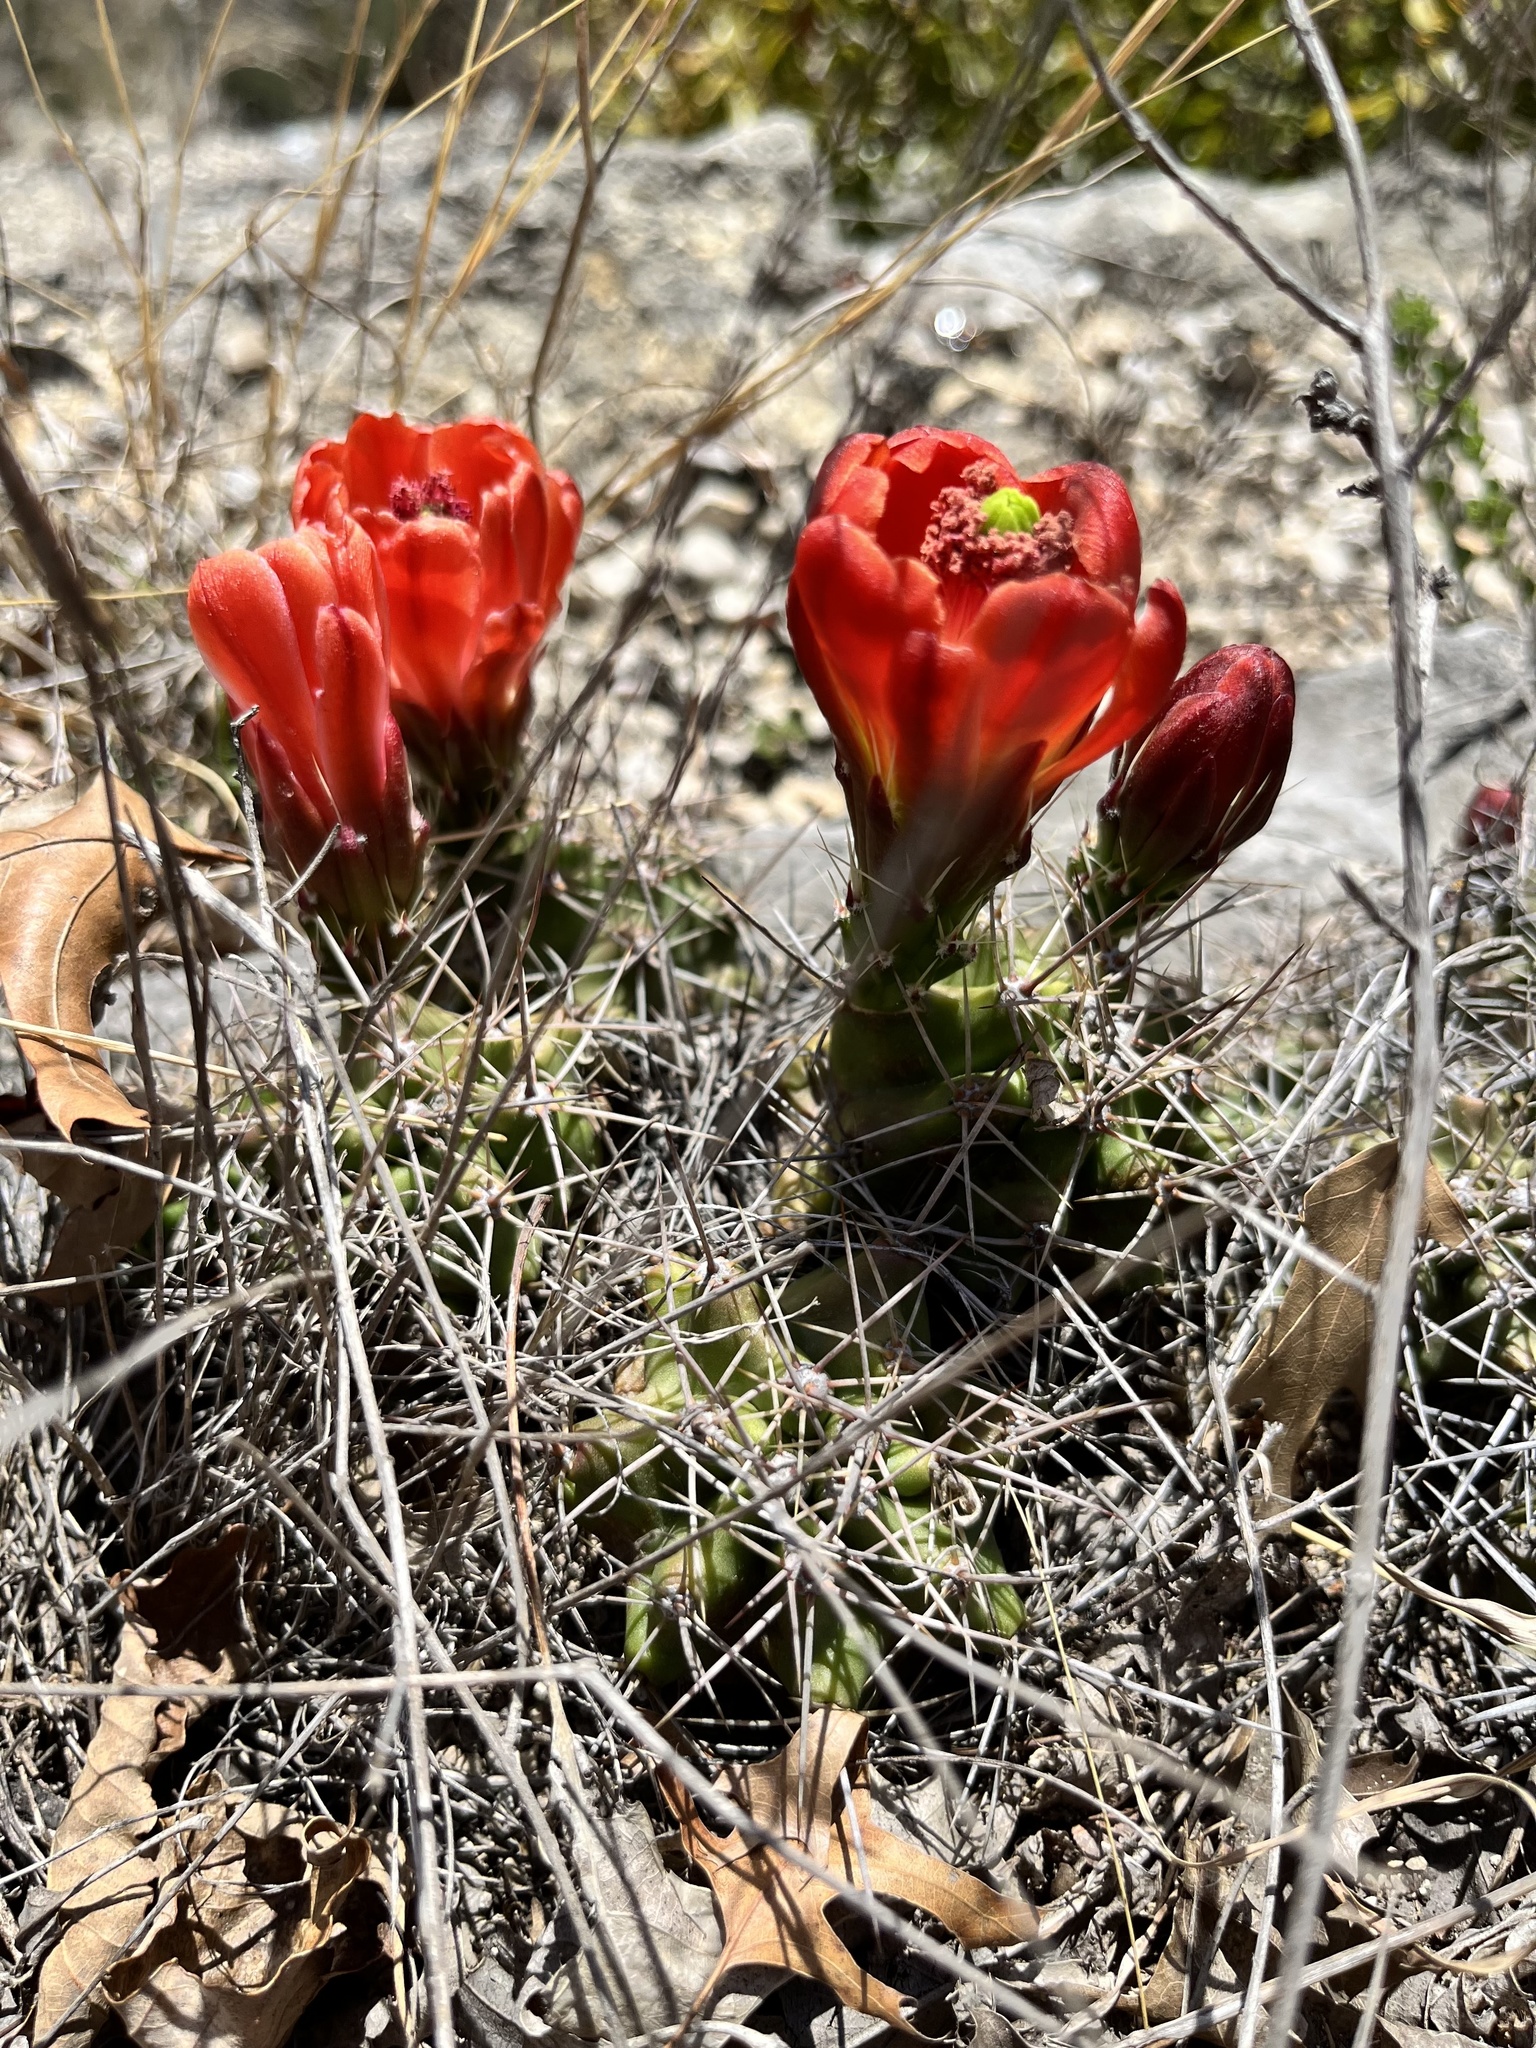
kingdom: Plantae
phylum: Tracheophyta
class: Magnoliopsida
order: Caryophyllales
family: Cactaceae
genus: Echinocereus
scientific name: Echinocereus coccineus
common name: Scarlet hedgehog cactus
